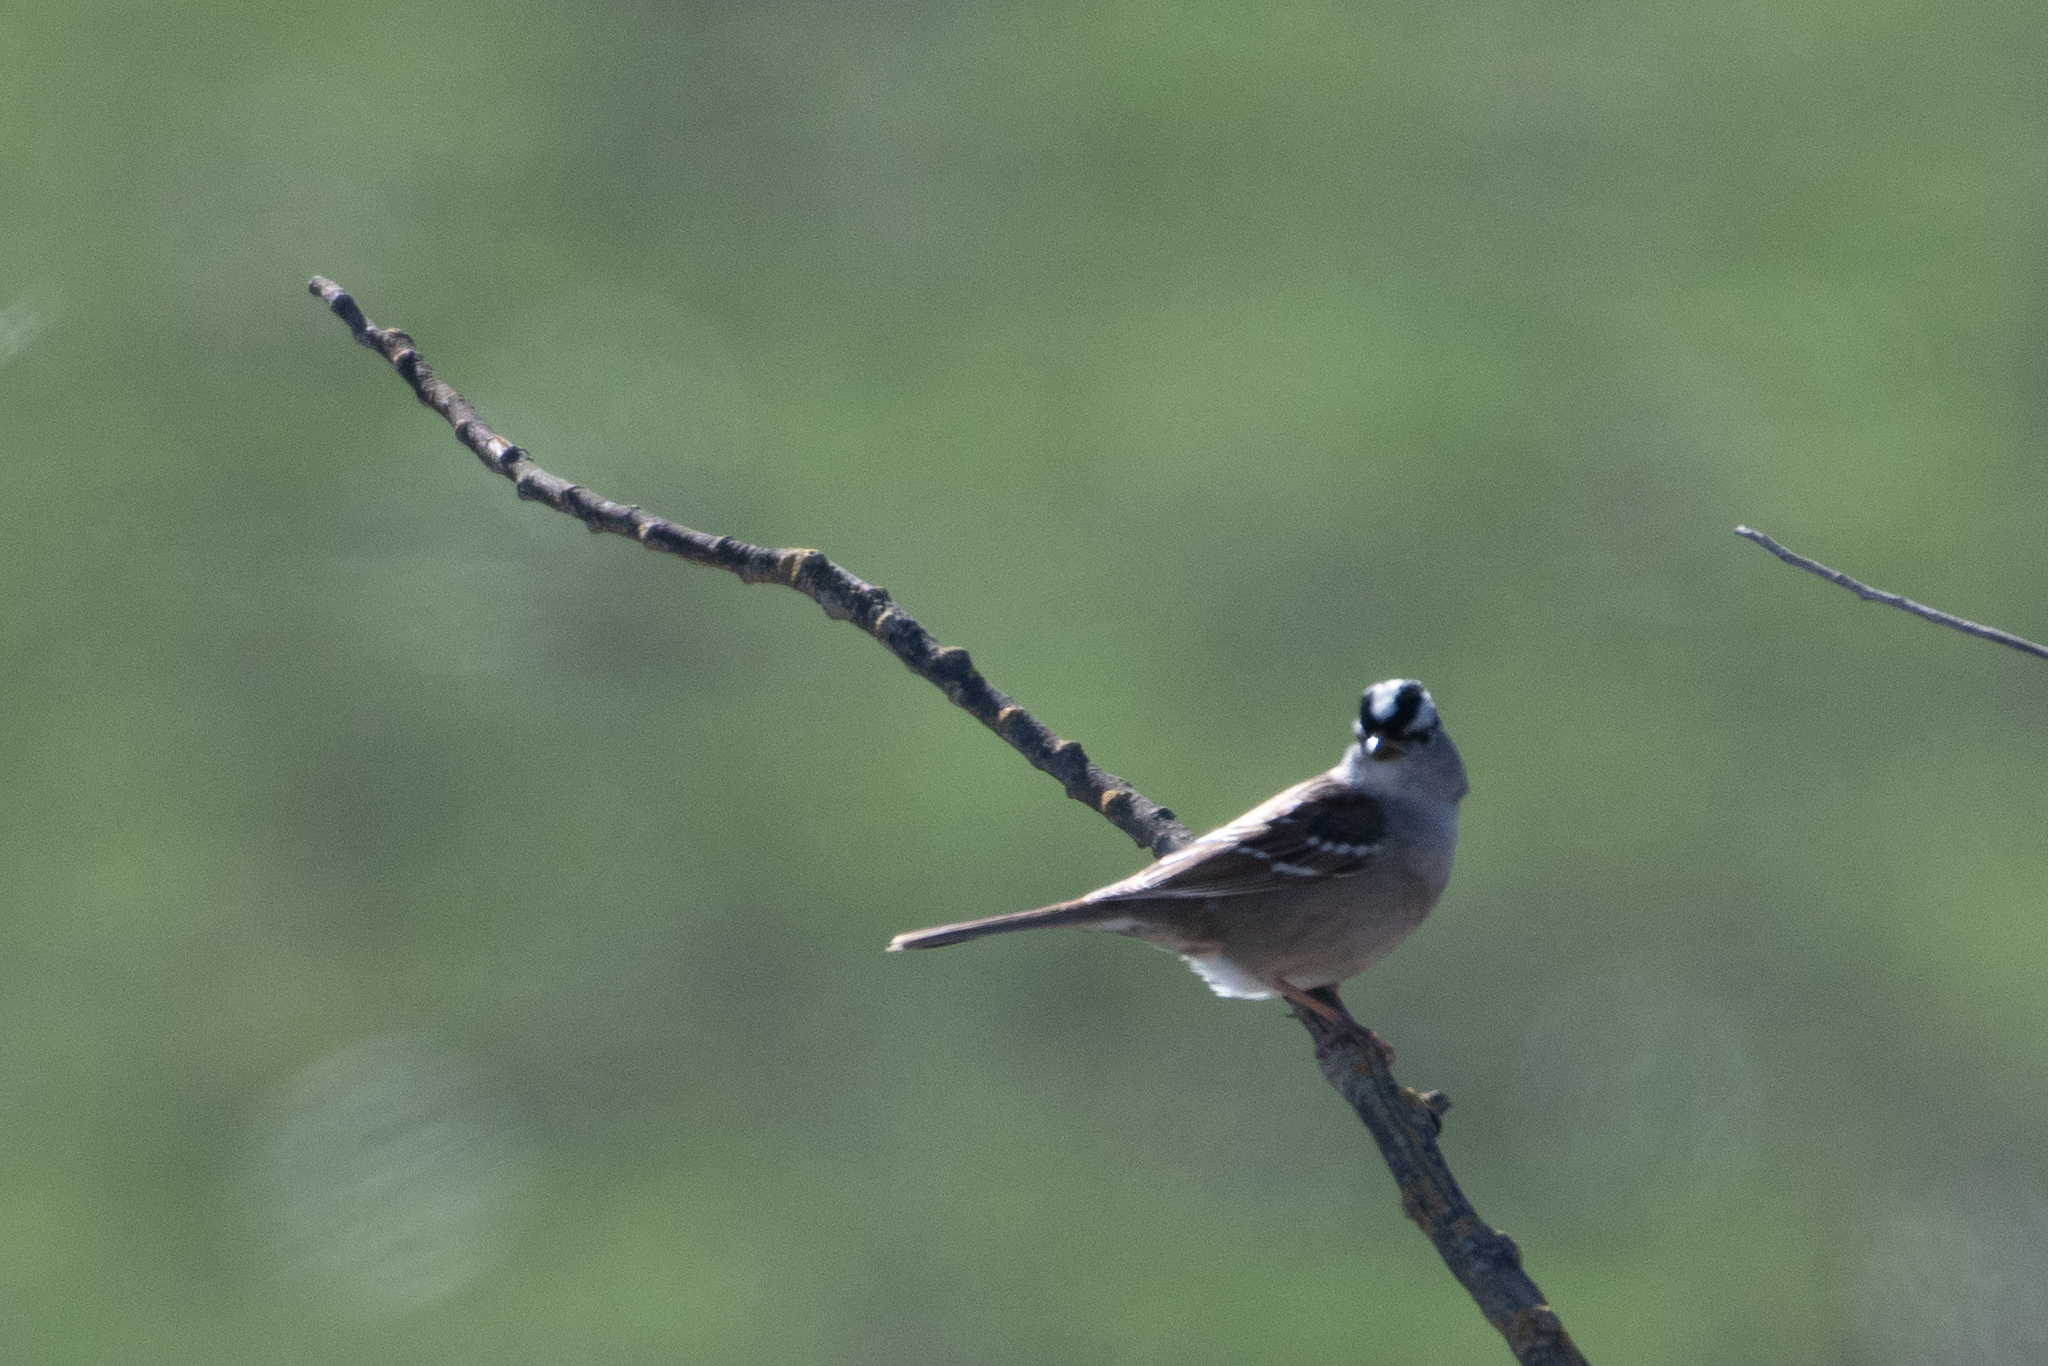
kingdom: Animalia
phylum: Chordata
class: Aves
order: Passeriformes
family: Passerellidae
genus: Zonotrichia
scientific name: Zonotrichia leucophrys
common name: White-crowned sparrow
